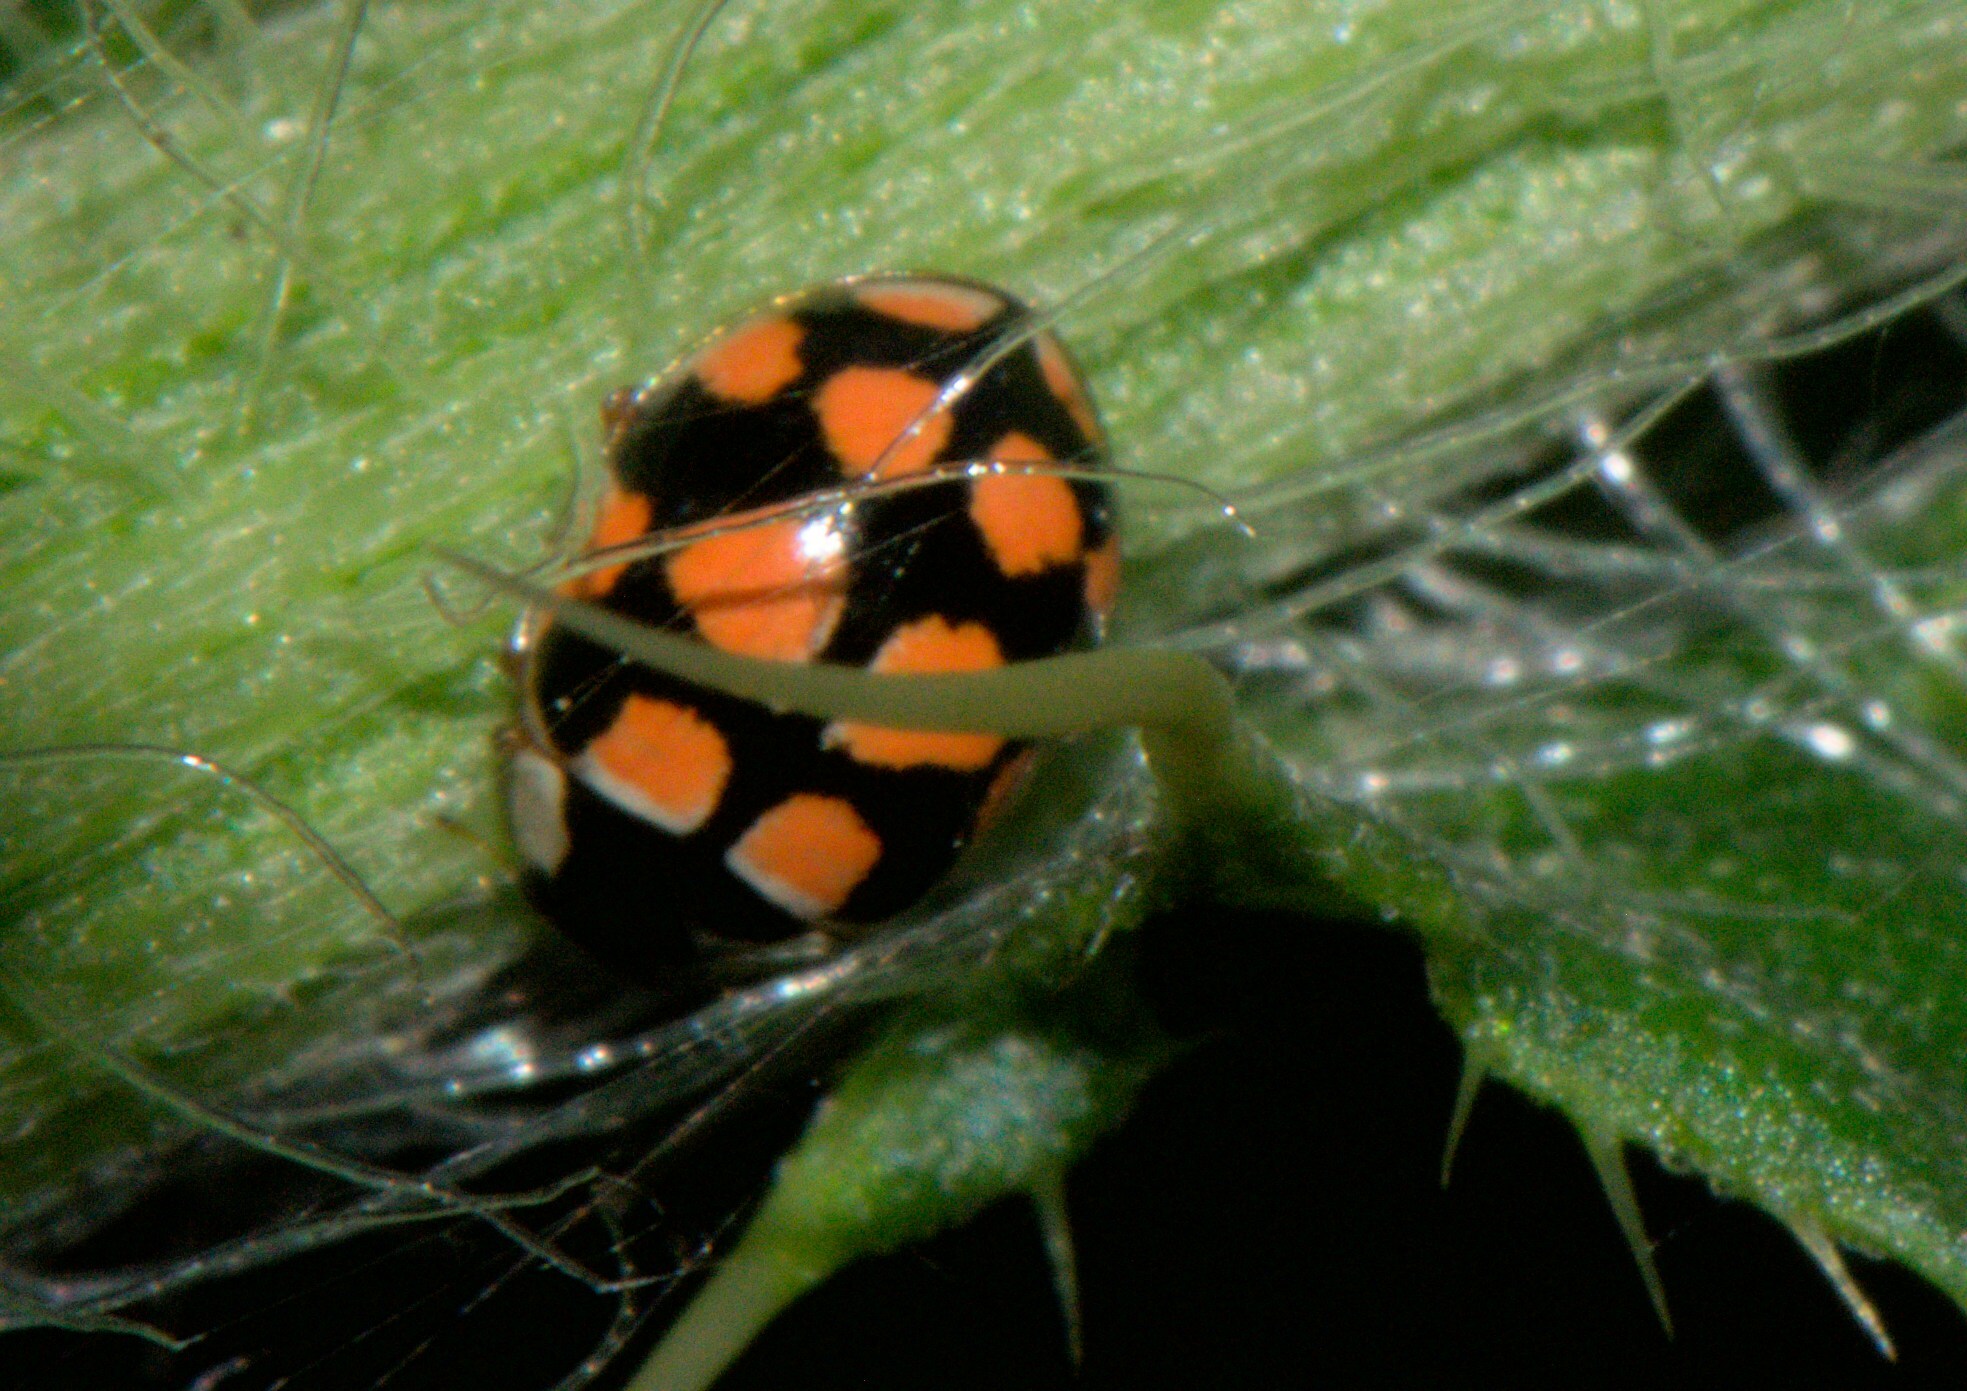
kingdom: Animalia
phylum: Arthropoda
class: Insecta
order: Coleoptera
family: Coccinellidae
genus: Oenopia
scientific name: Oenopia
